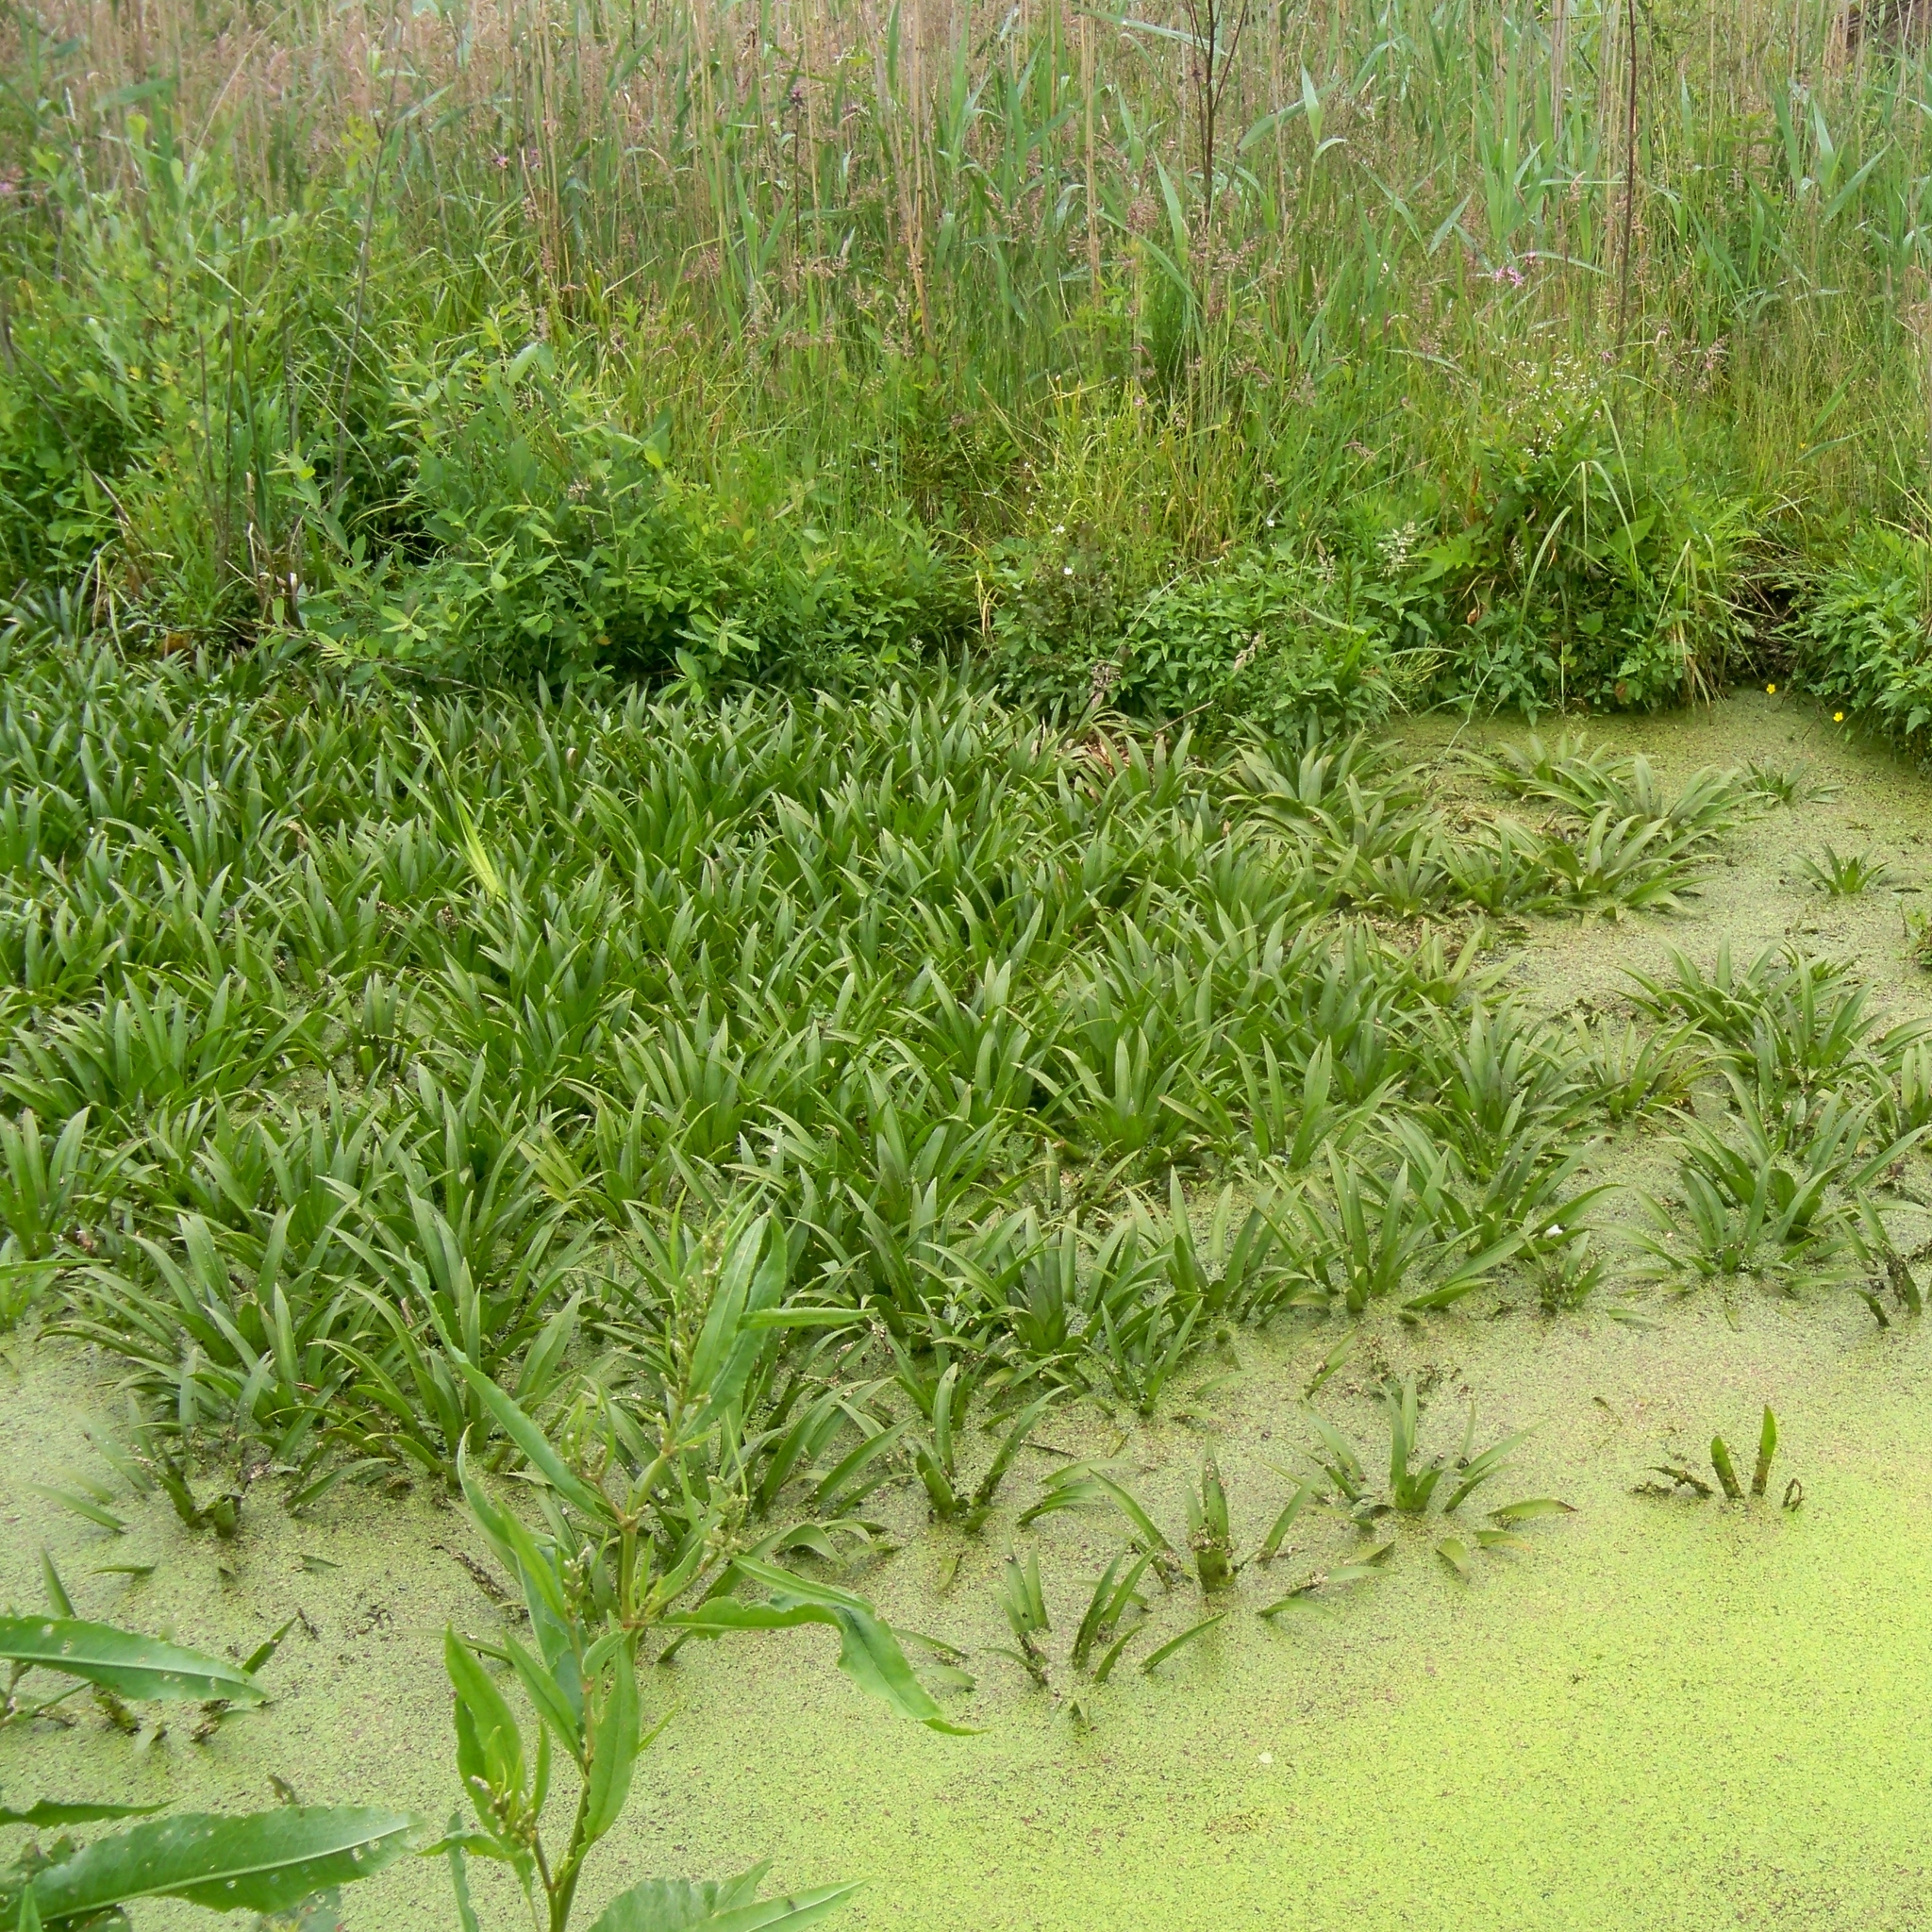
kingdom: Plantae
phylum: Tracheophyta
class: Liliopsida
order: Alismatales
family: Hydrocharitaceae
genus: Stratiotes
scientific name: Stratiotes aloides
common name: Water-soldier
